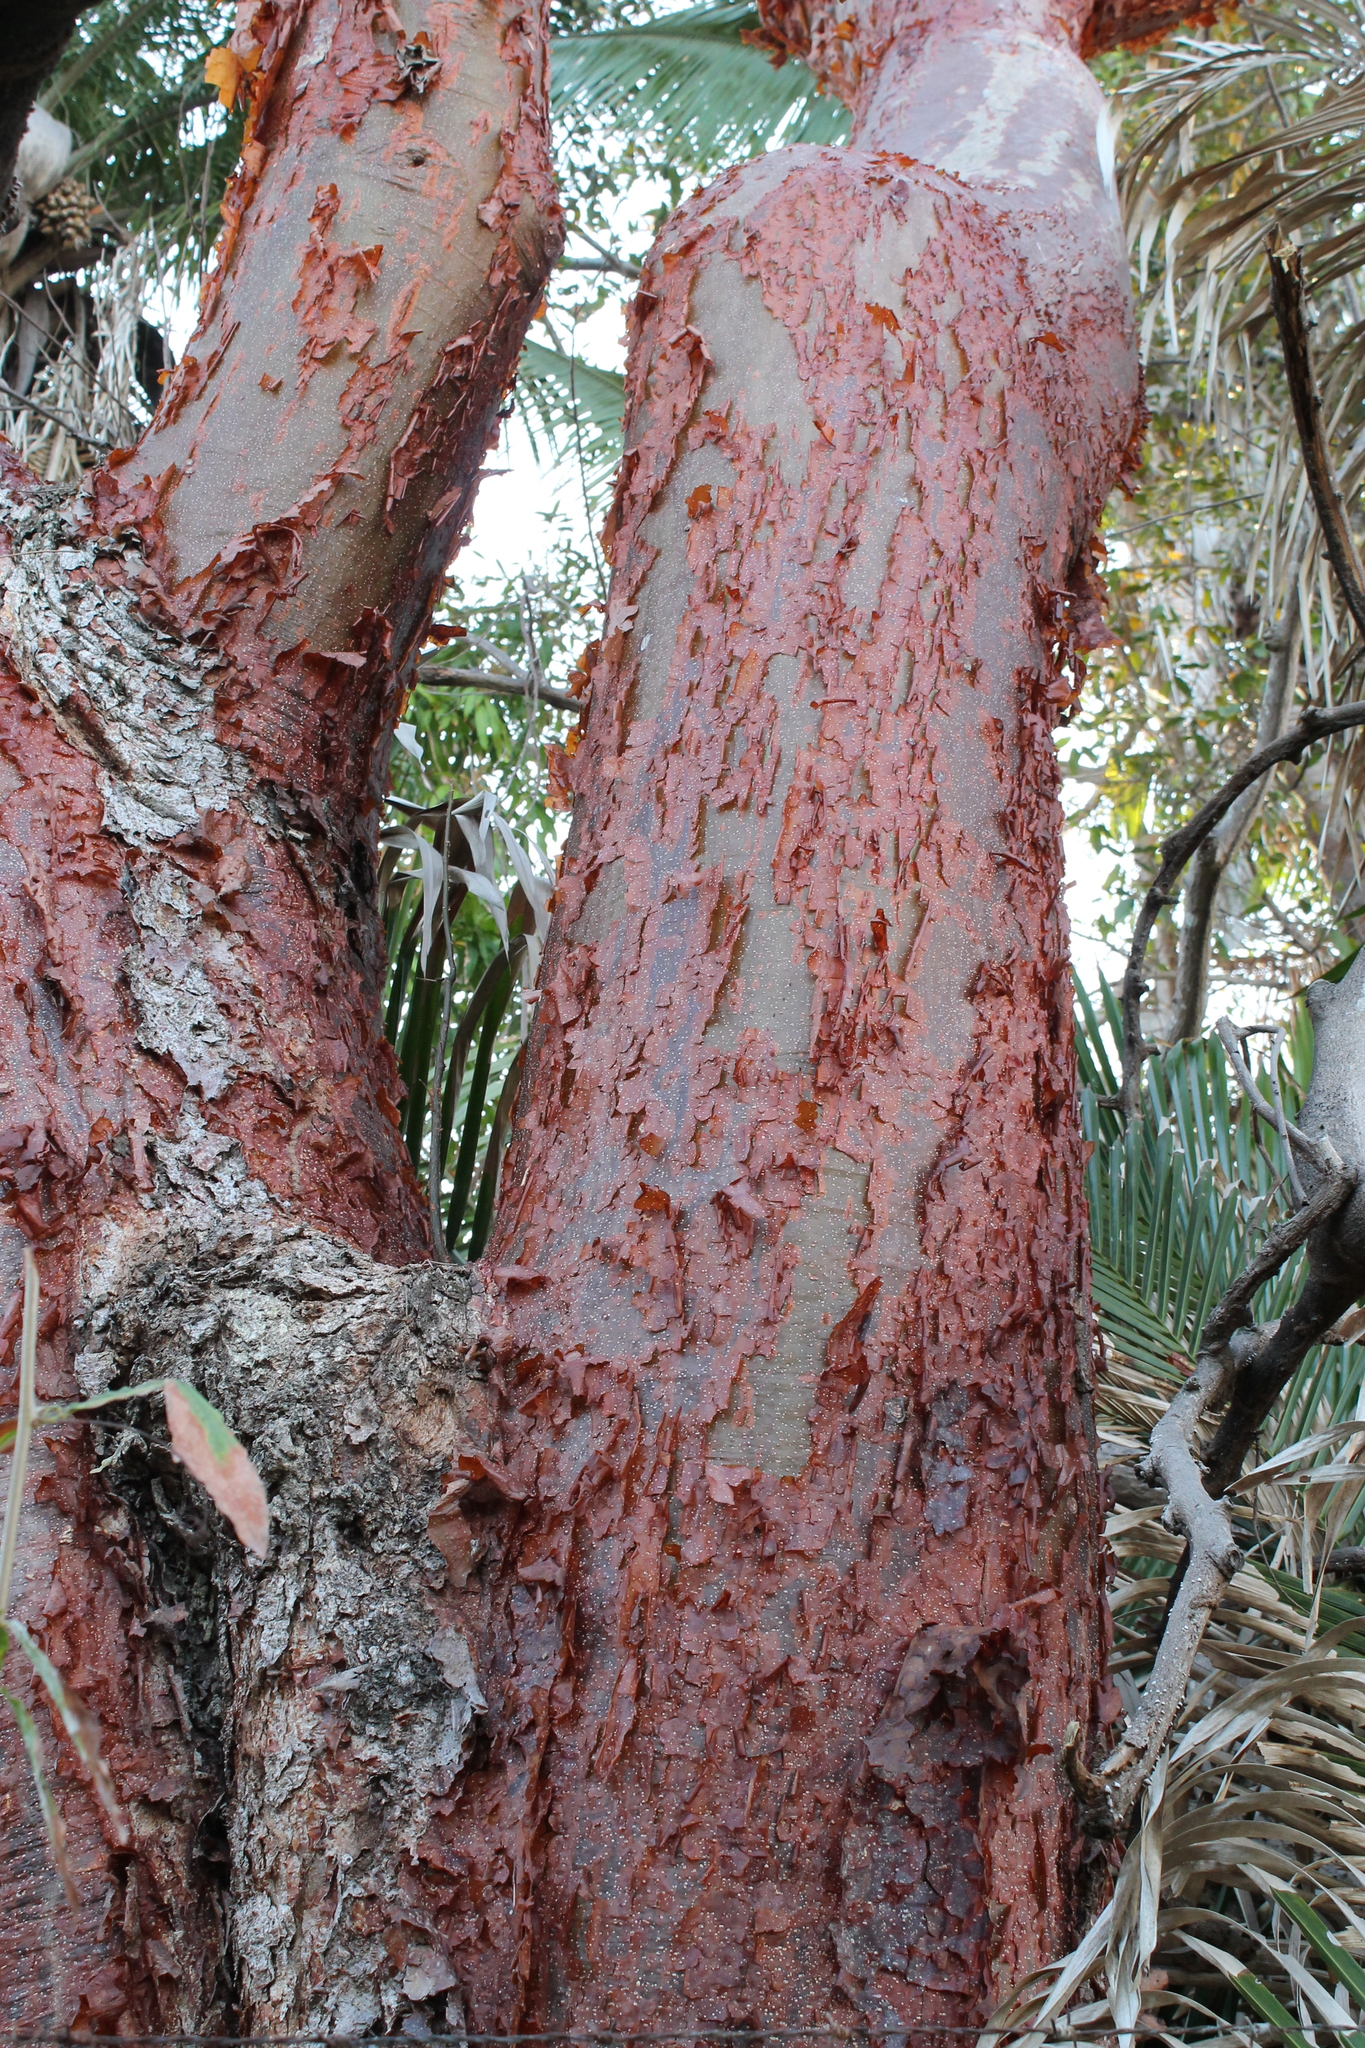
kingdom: Plantae
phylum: Tracheophyta
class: Magnoliopsida
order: Sapindales
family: Burseraceae
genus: Bursera
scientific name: Bursera simaruba
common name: Turpentine tree
